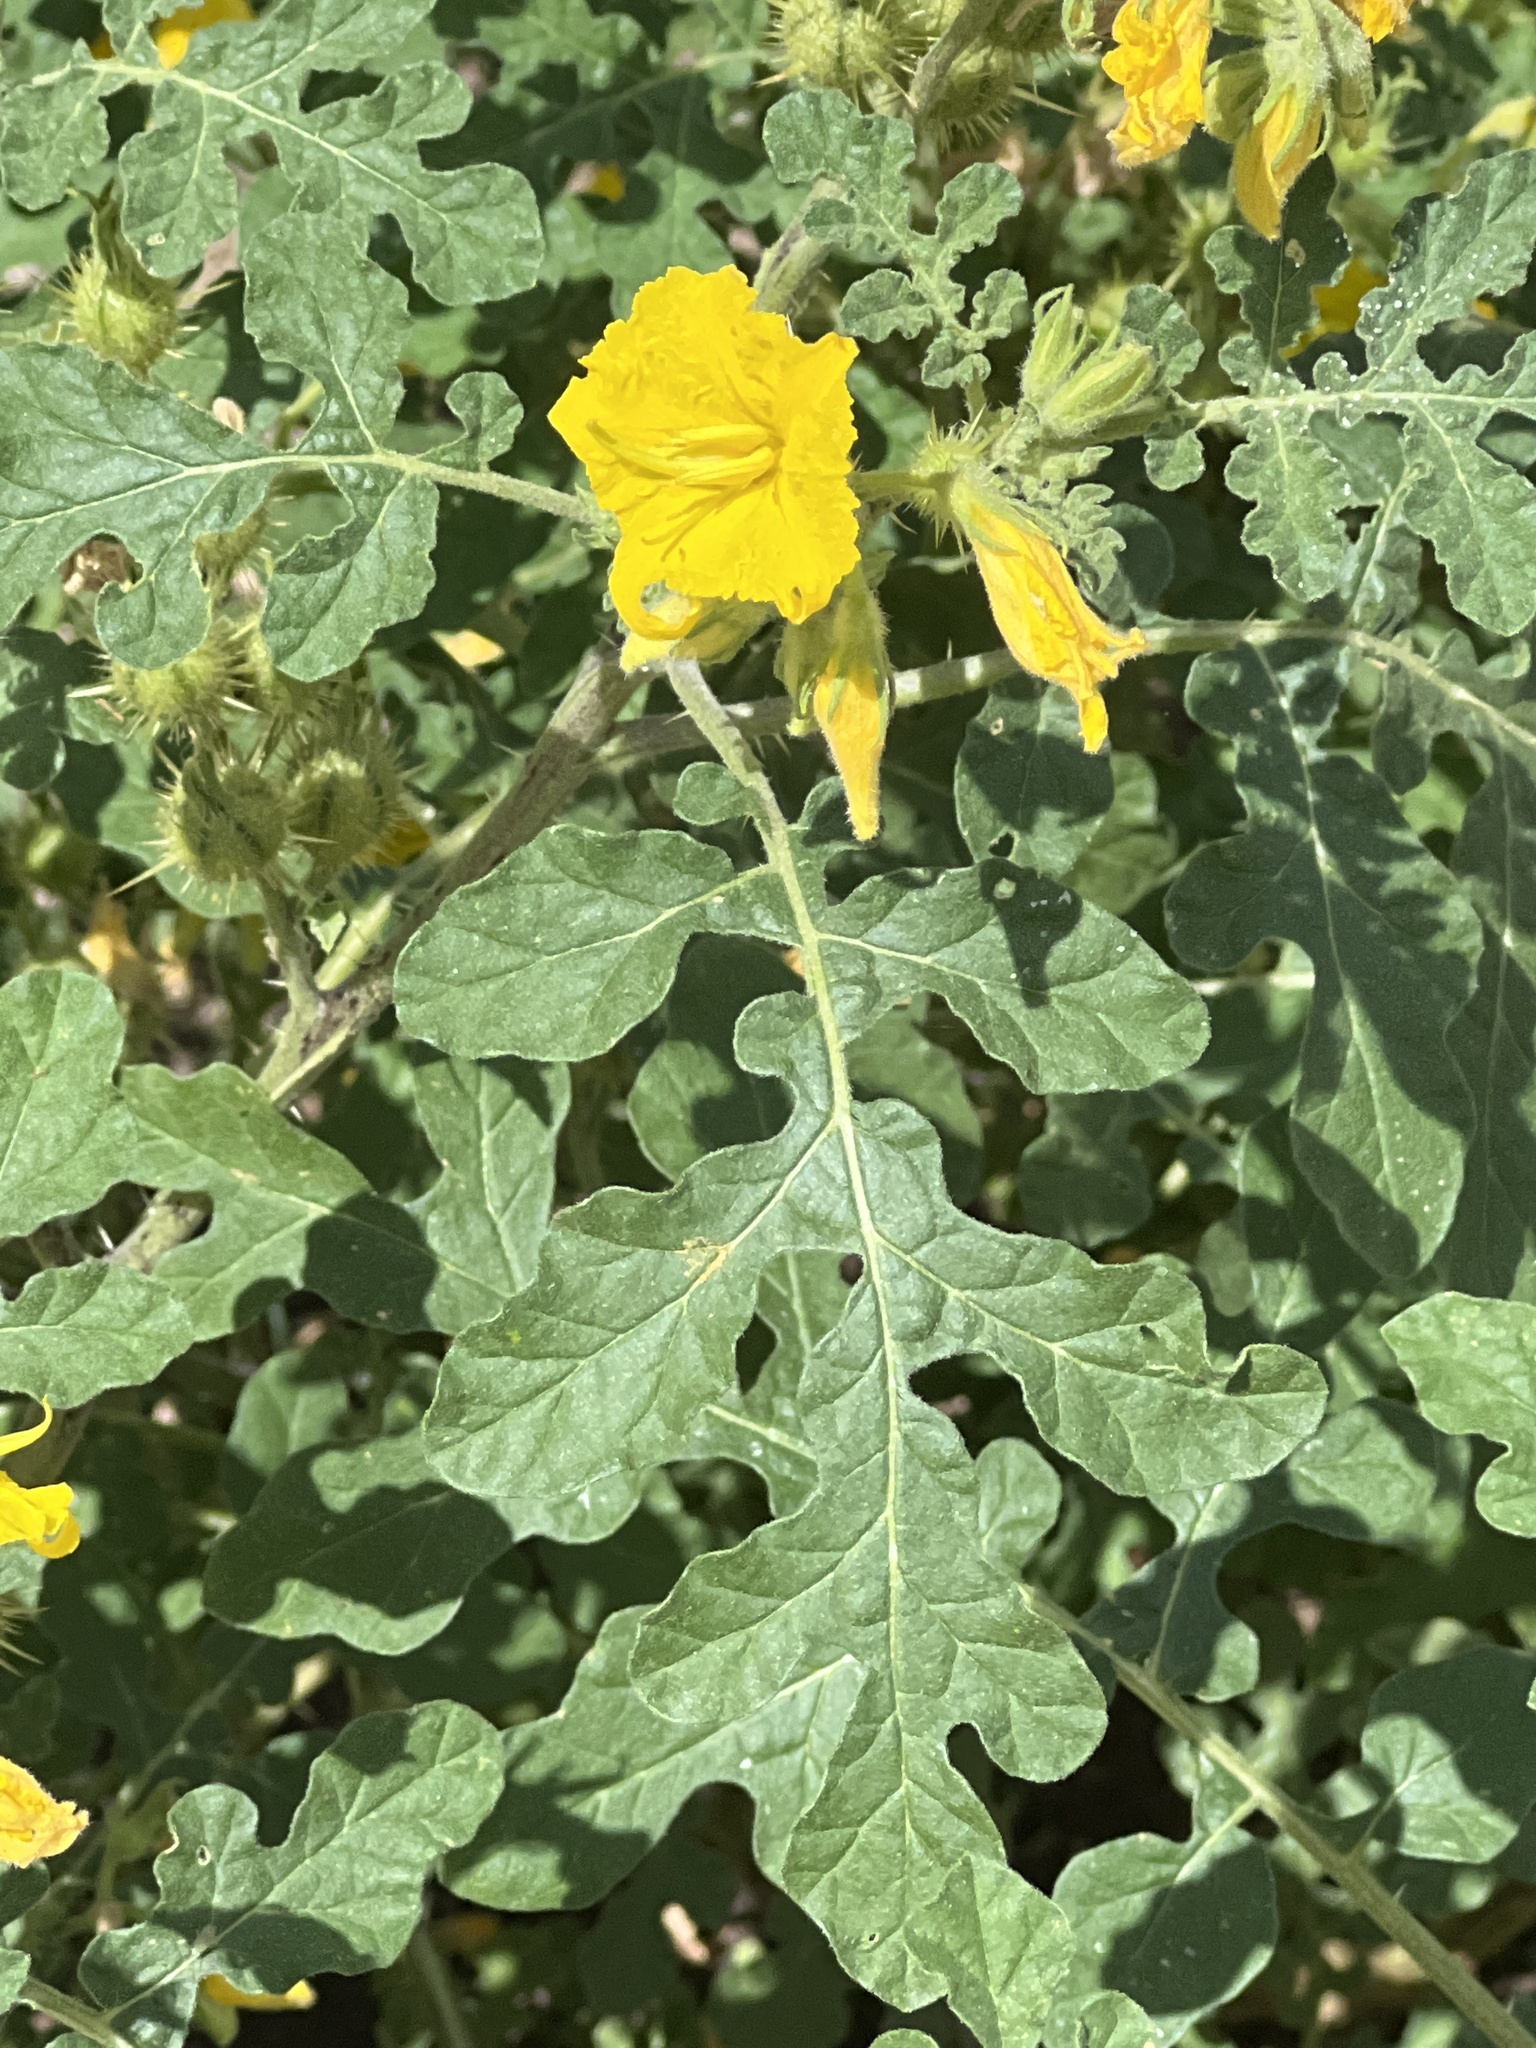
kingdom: Plantae
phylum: Tracheophyta
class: Magnoliopsida
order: Solanales
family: Solanaceae
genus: Solanum
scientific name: Solanum angustifolium
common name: Buffalobur nightshade
